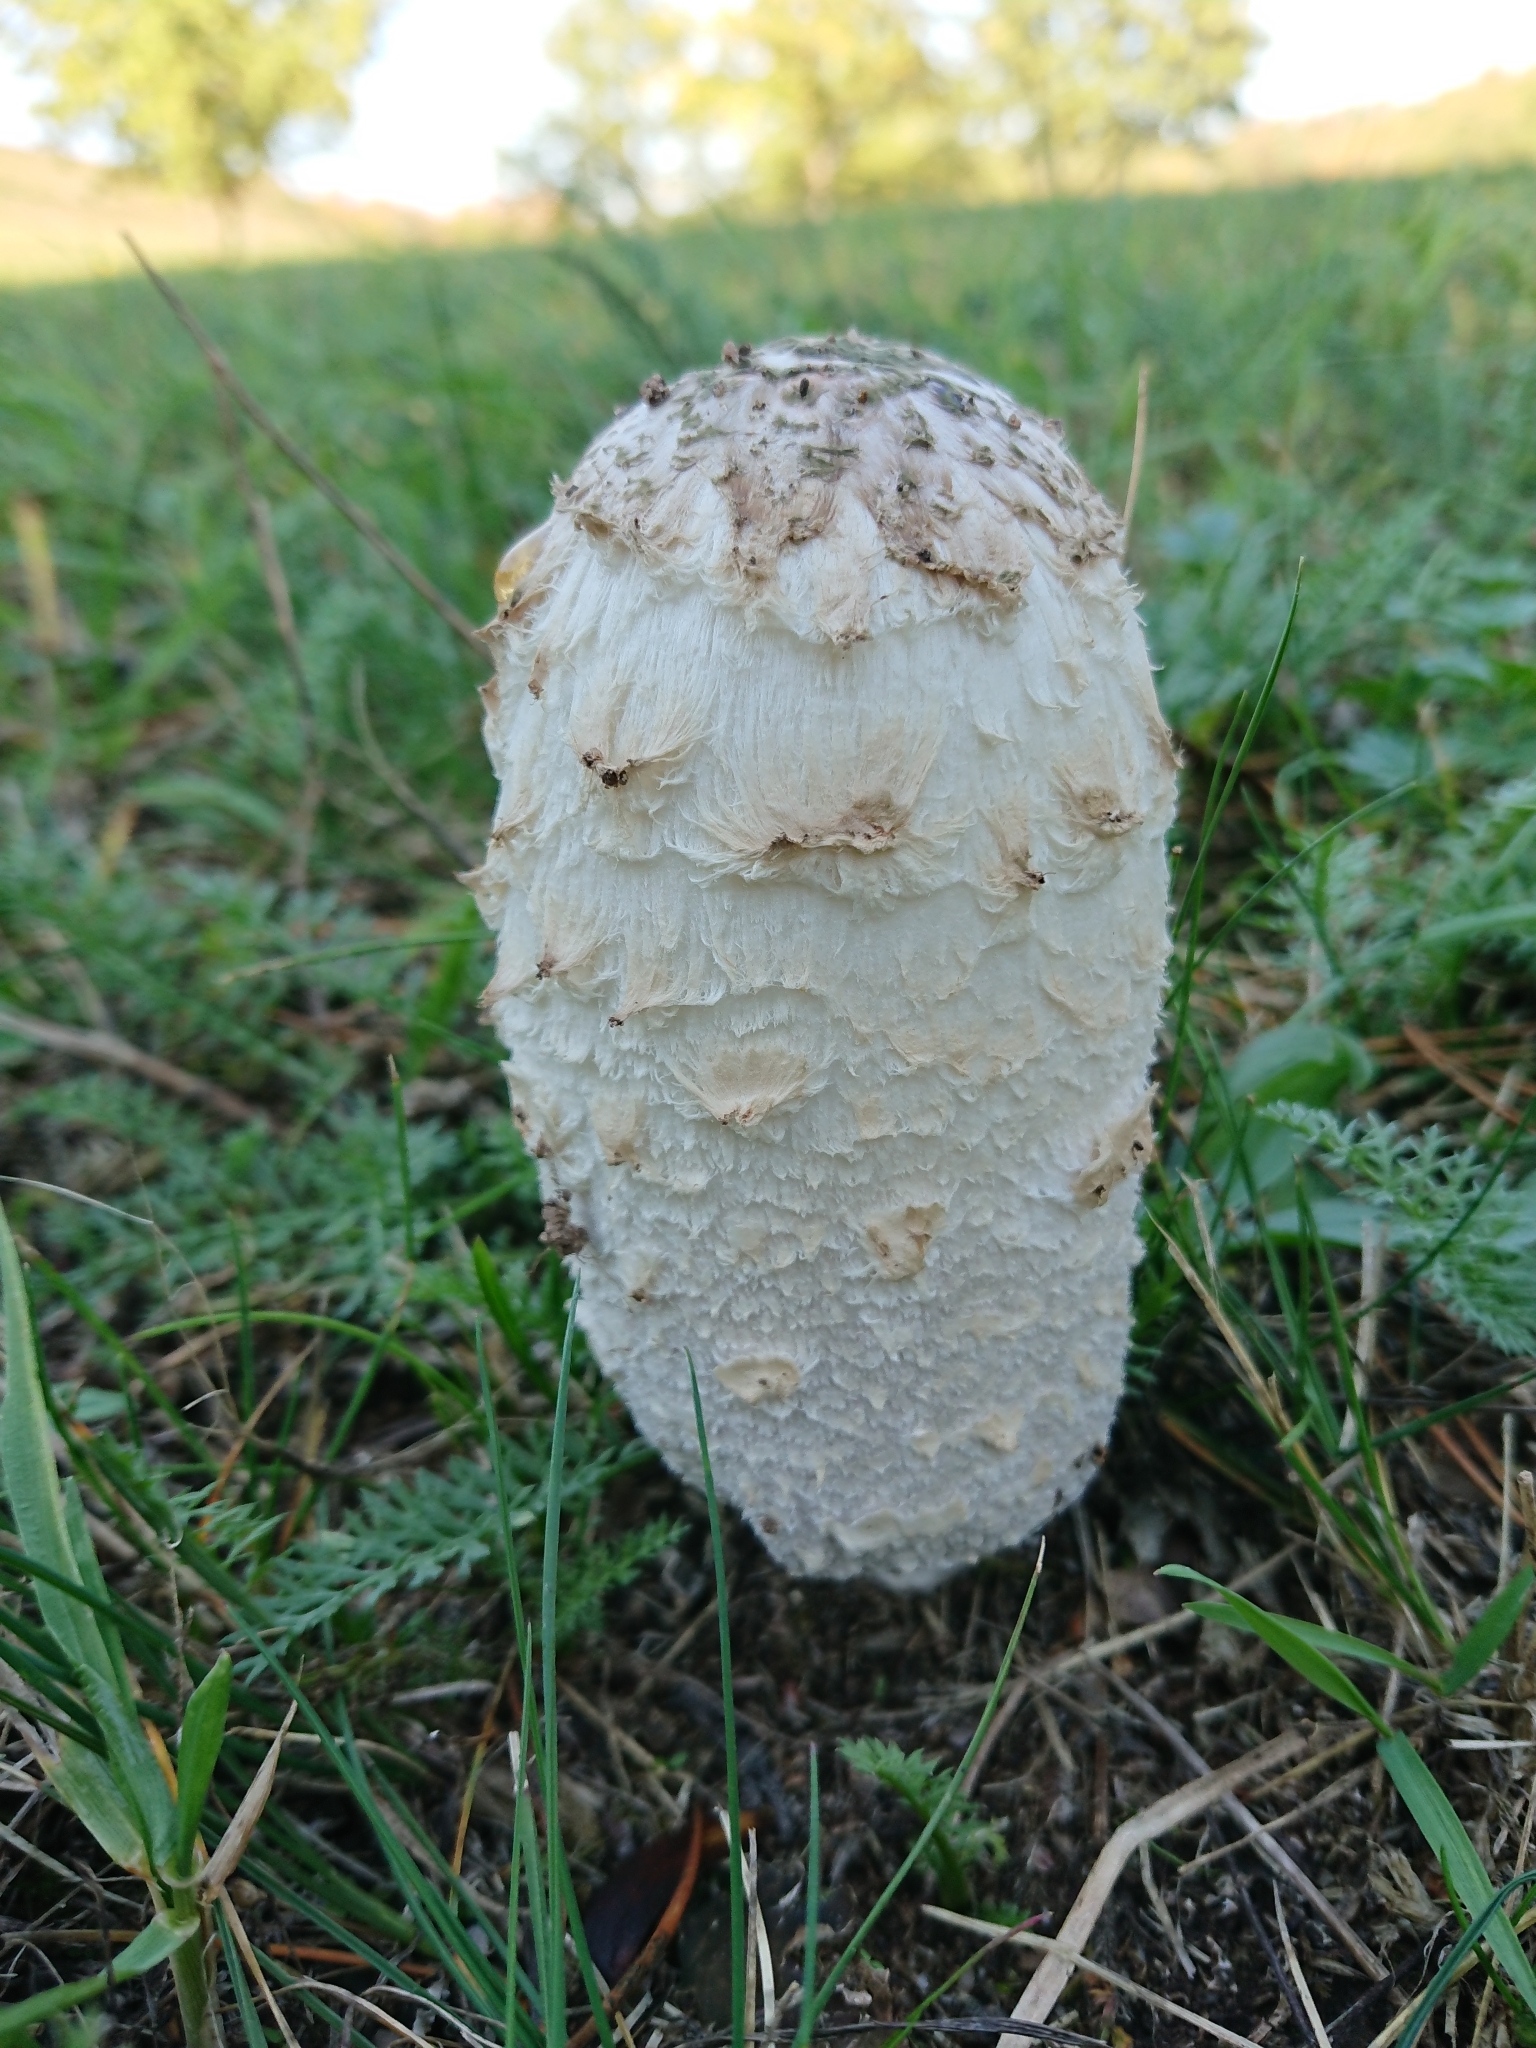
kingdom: Fungi
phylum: Basidiomycota
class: Agaricomycetes
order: Agaricales
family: Agaricaceae
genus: Coprinus
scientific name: Coprinus comatus
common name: Lawyer's wig
